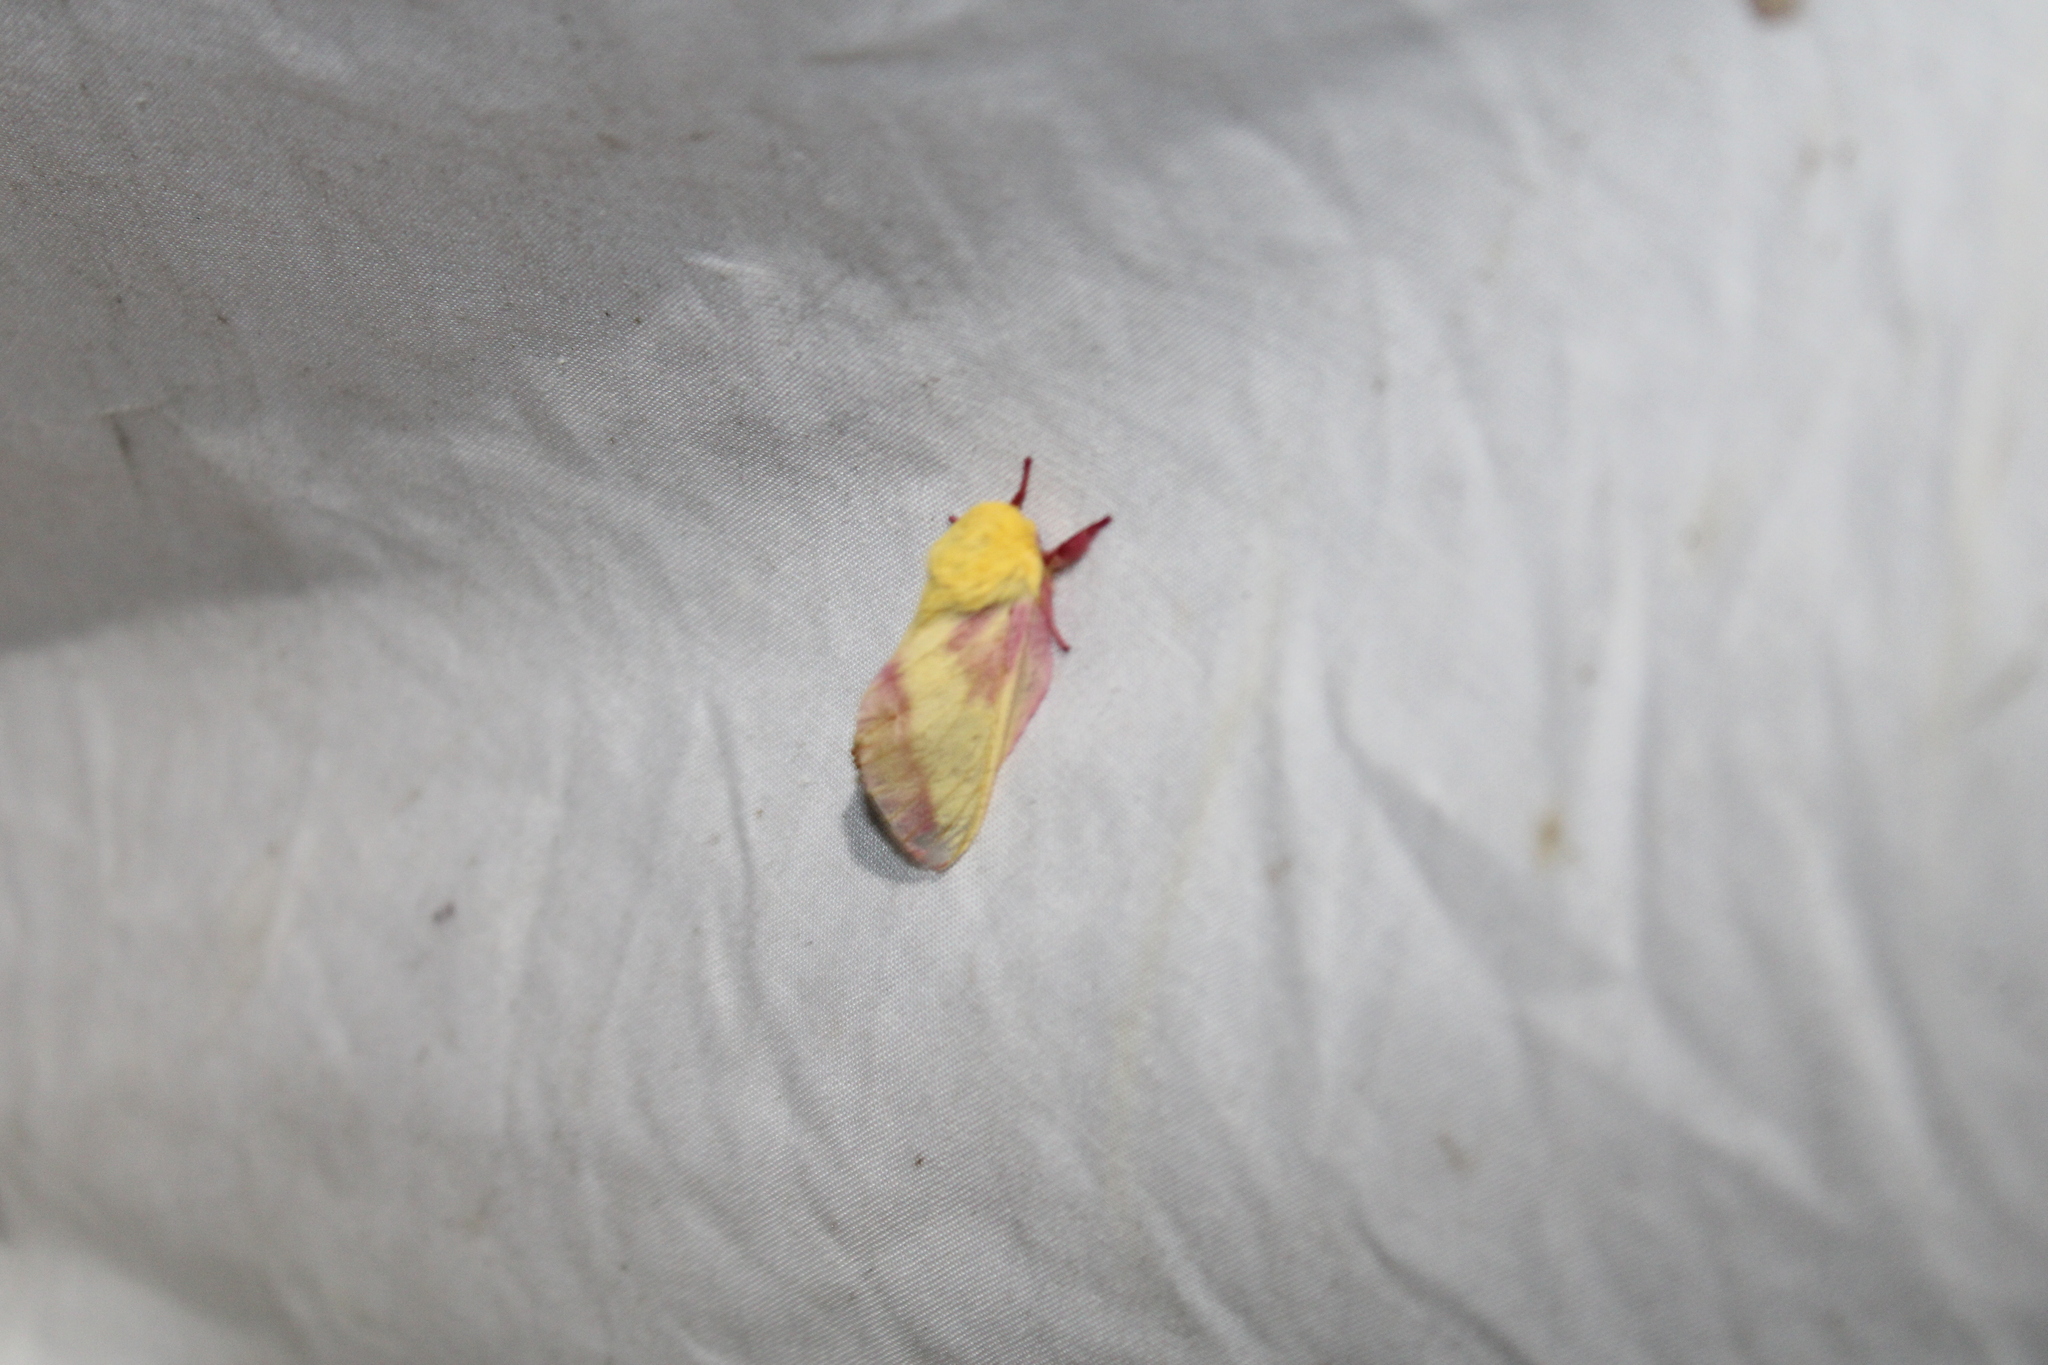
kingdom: Animalia
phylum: Arthropoda
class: Insecta
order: Lepidoptera
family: Saturniidae
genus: Dryocampa
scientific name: Dryocampa rubicunda
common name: Rosy maple moth
